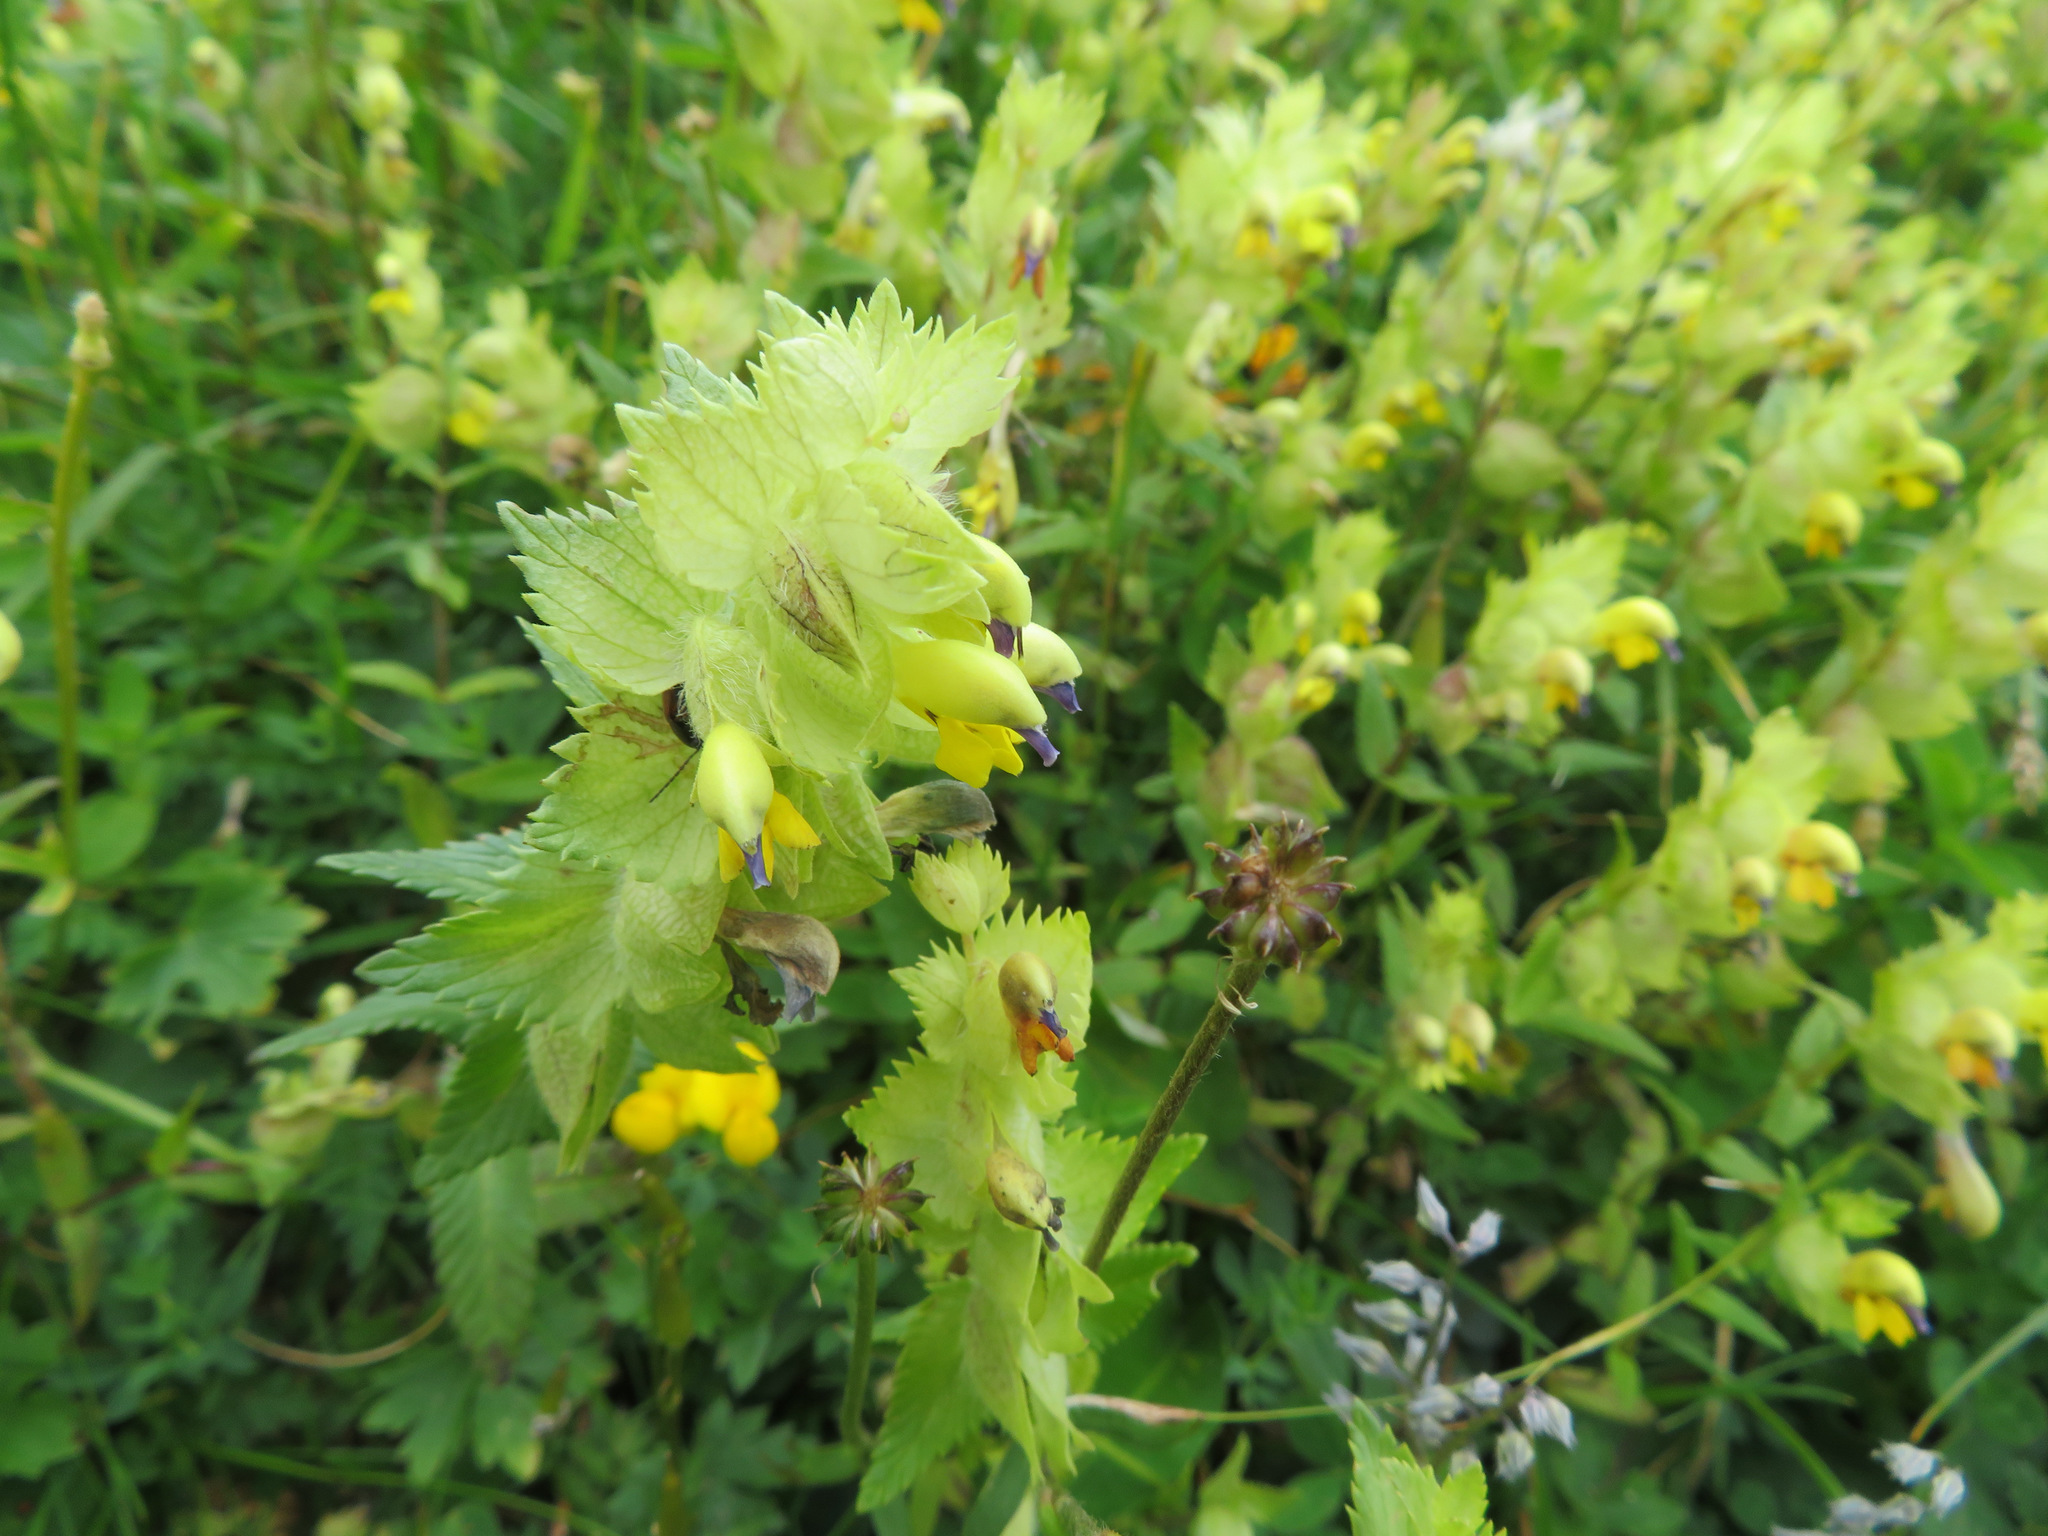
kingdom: Plantae
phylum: Tracheophyta
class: Magnoliopsida
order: Lamiales
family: Orobanchaceae
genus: Rhinanthus
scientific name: Rhinanthus alectorolophus
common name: Greater yellow-rattle
